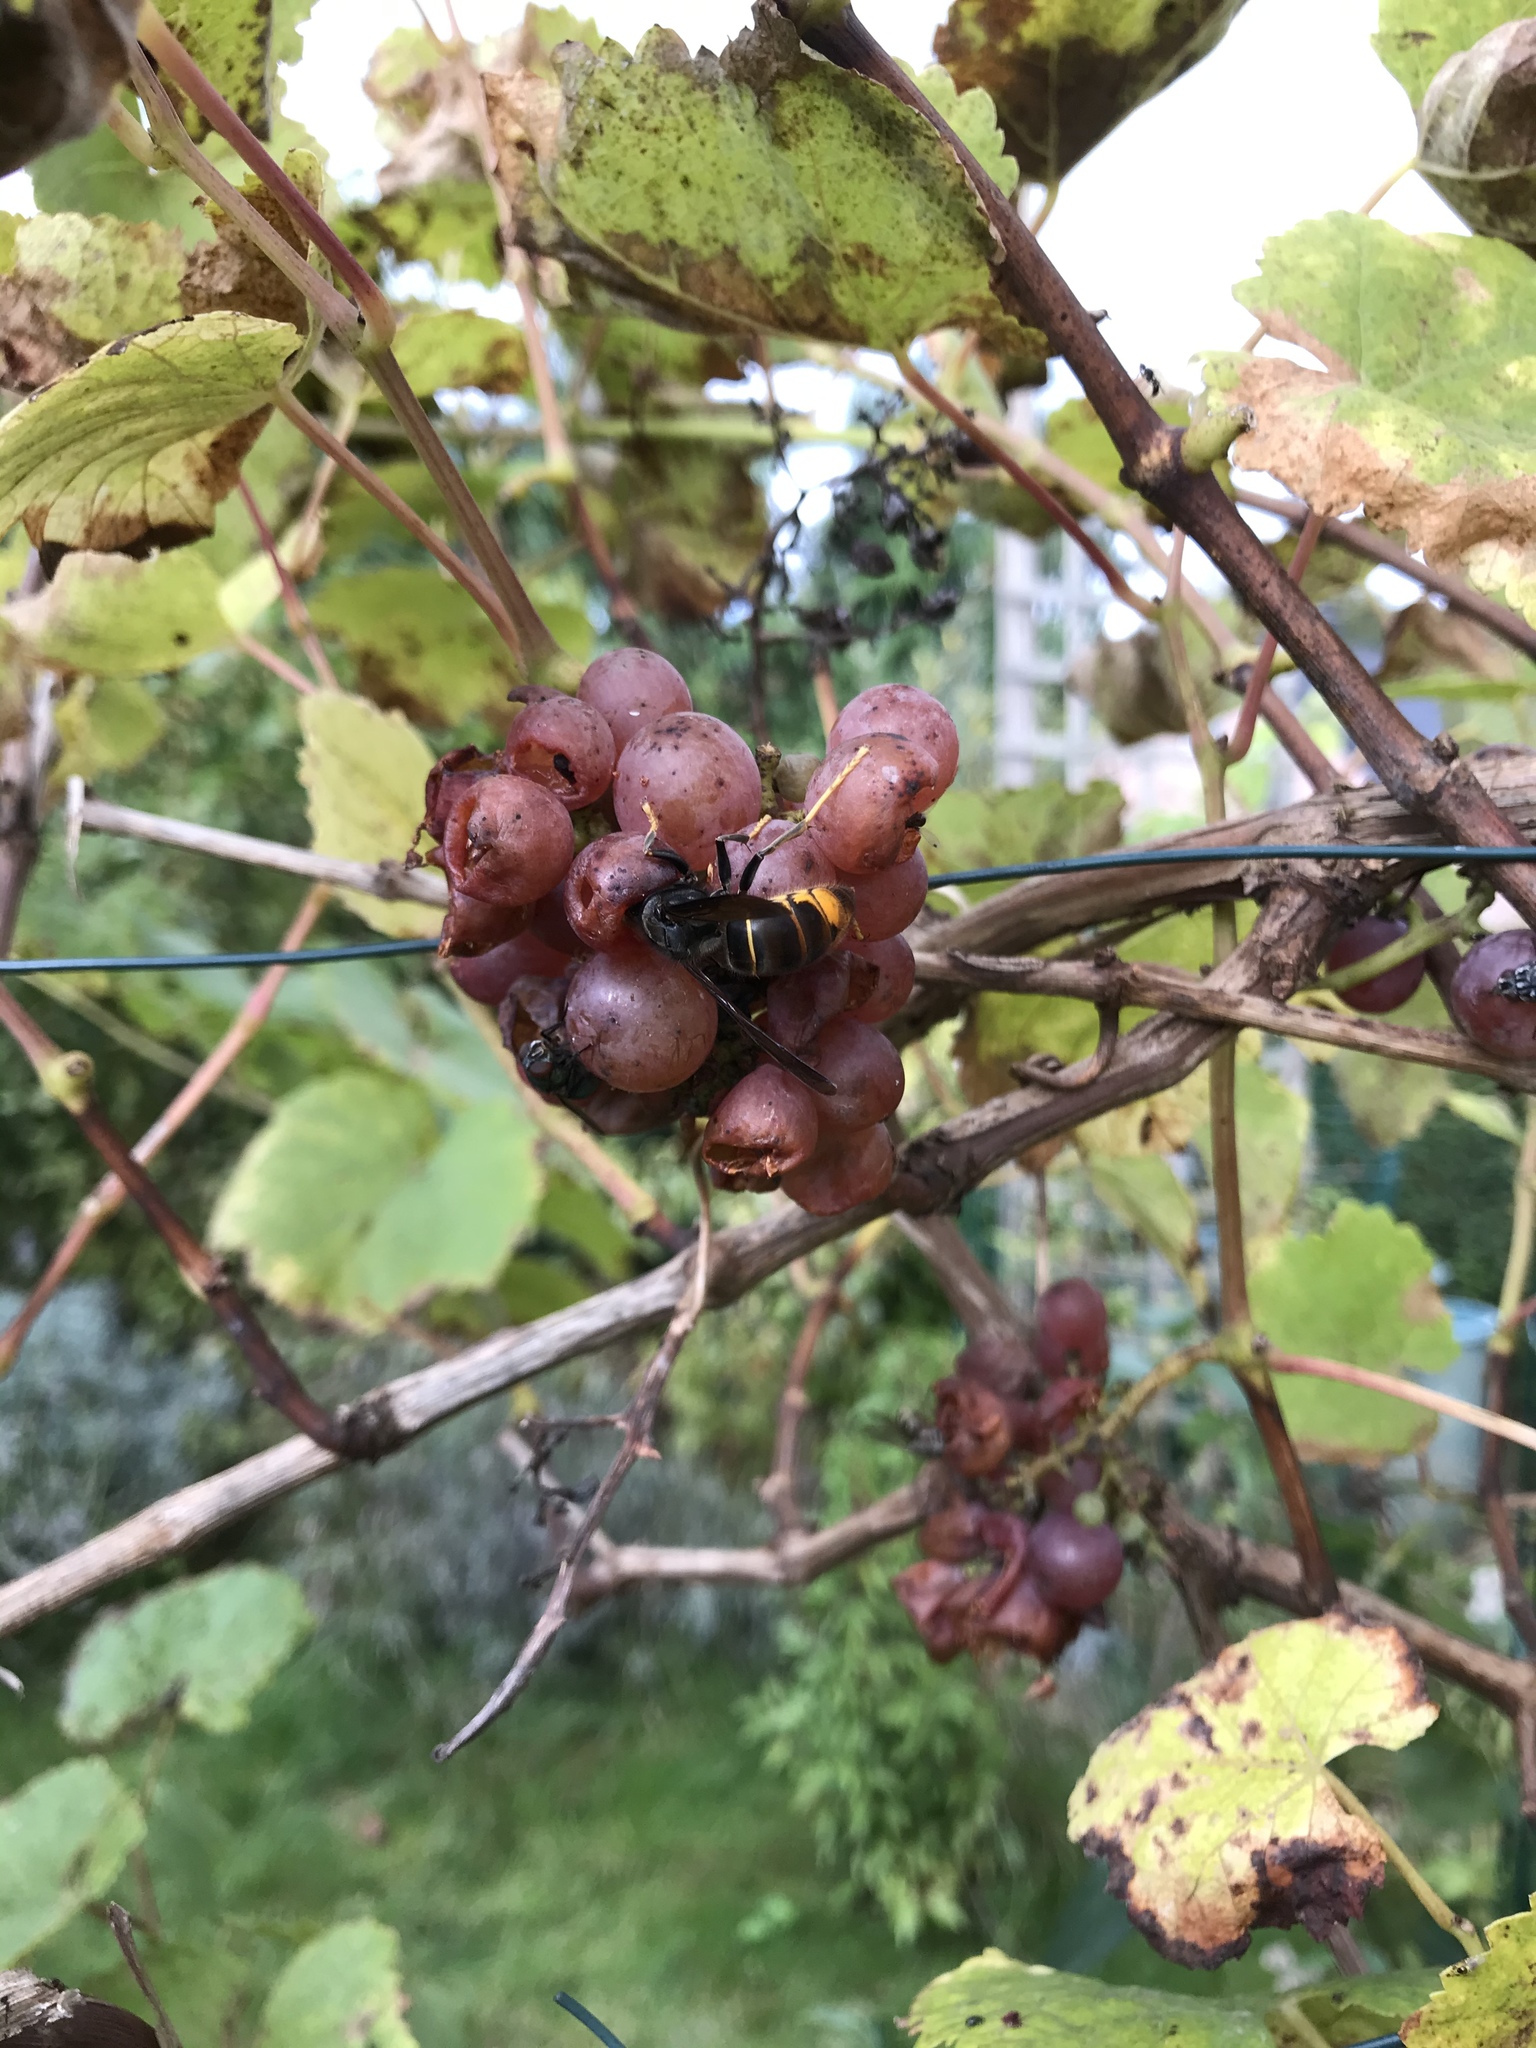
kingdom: Animalia
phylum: Arthropoda
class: Insecta
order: Hymenoptera
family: Vespidae
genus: Vespa
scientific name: Vespa velutina
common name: Asian hornet
